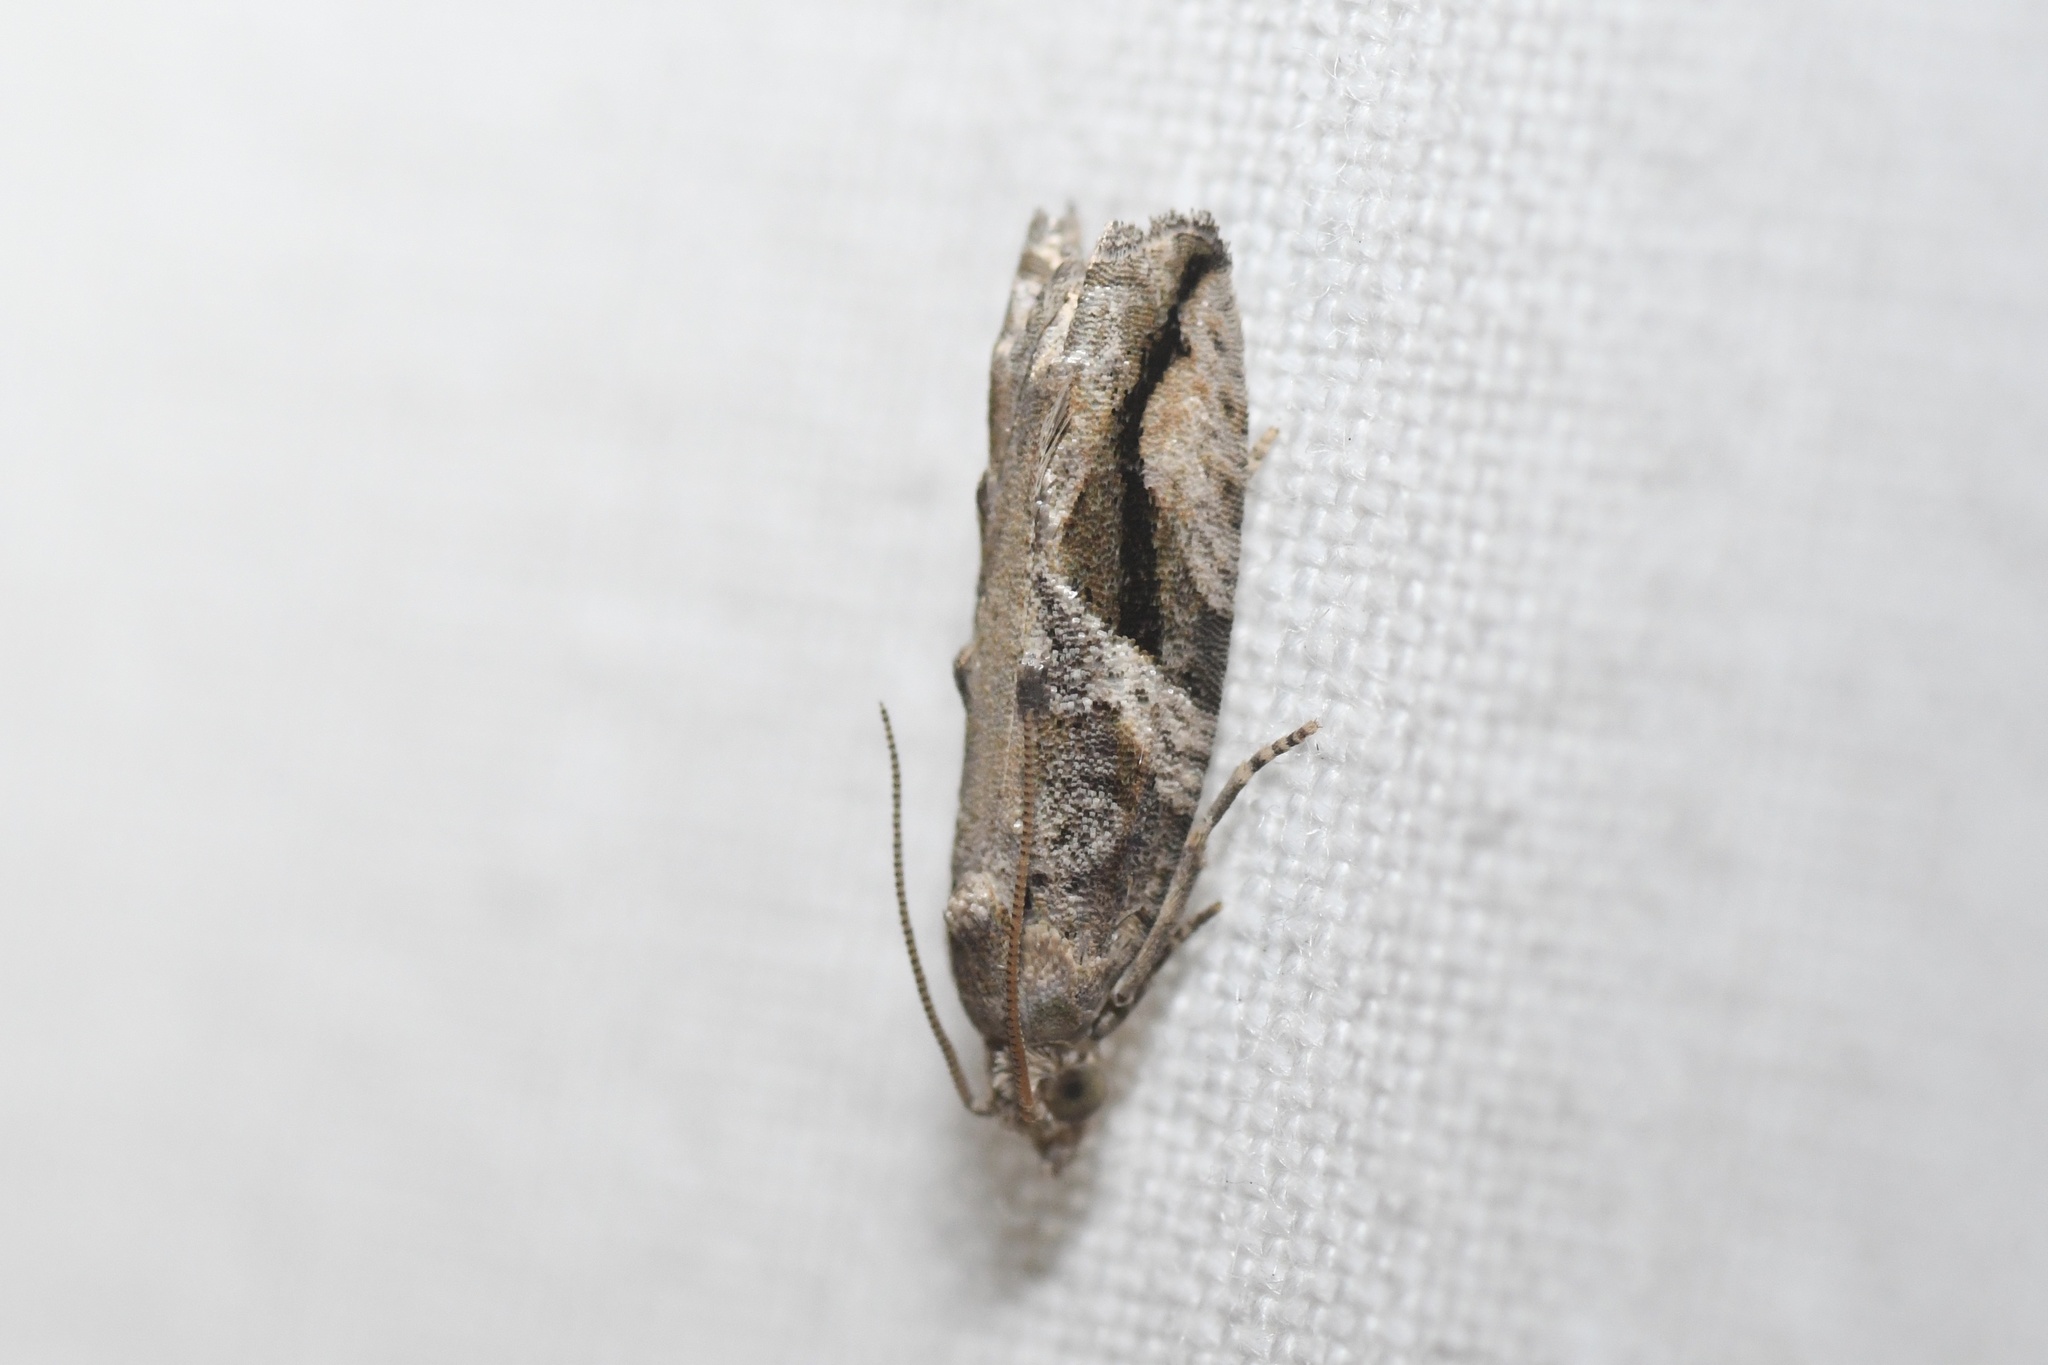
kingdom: Animalia
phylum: Arthropoda
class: Insecta
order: Lepidoptera
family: Tortricidae
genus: Proteoteras
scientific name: Proteoteras crescentana
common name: Black-crescent proteoteras moth
